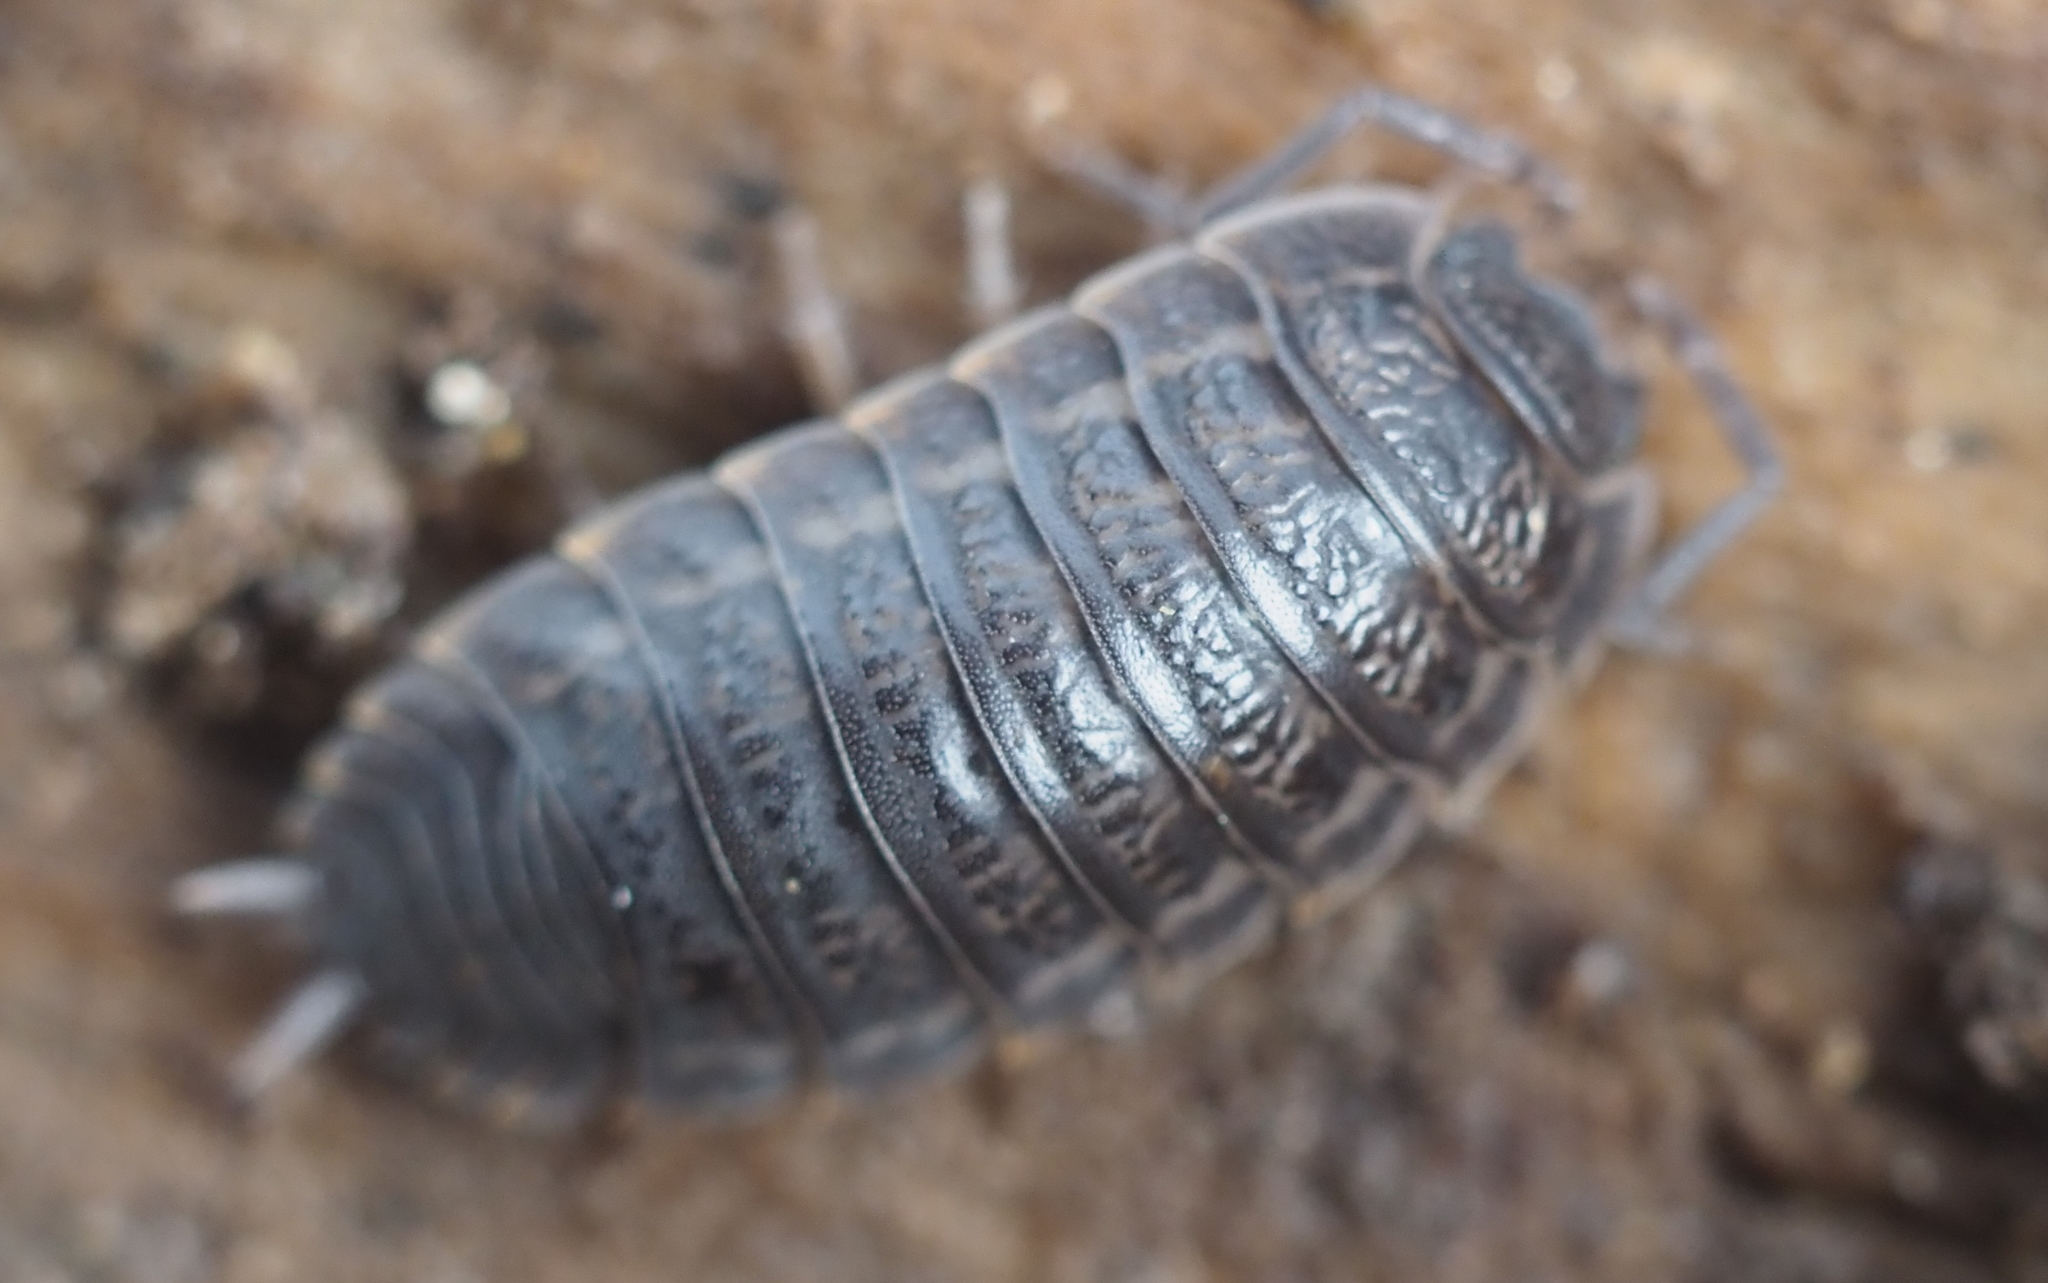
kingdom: Animalia
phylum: Arthropoda
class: Malacostraca
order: Isopoda
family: Trachelipodidae
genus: Trachelipus
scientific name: Trachelipus rathkii
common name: Isopod
